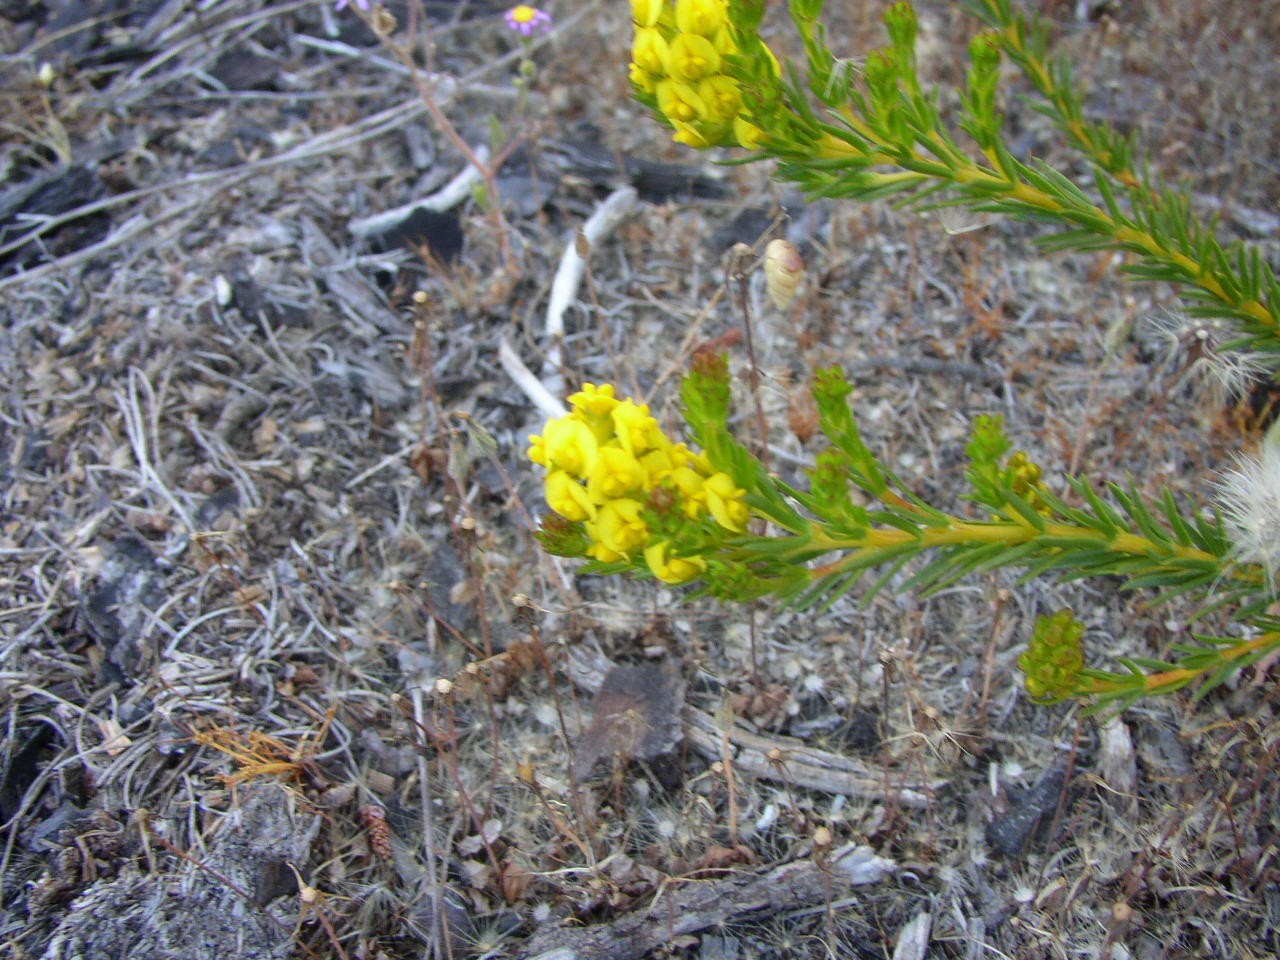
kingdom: Plantae
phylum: Tracheophyta
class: Magnoliopsida
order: Fabales
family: Fabaceae
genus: Aspalathus
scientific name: Aspalathus callosa
